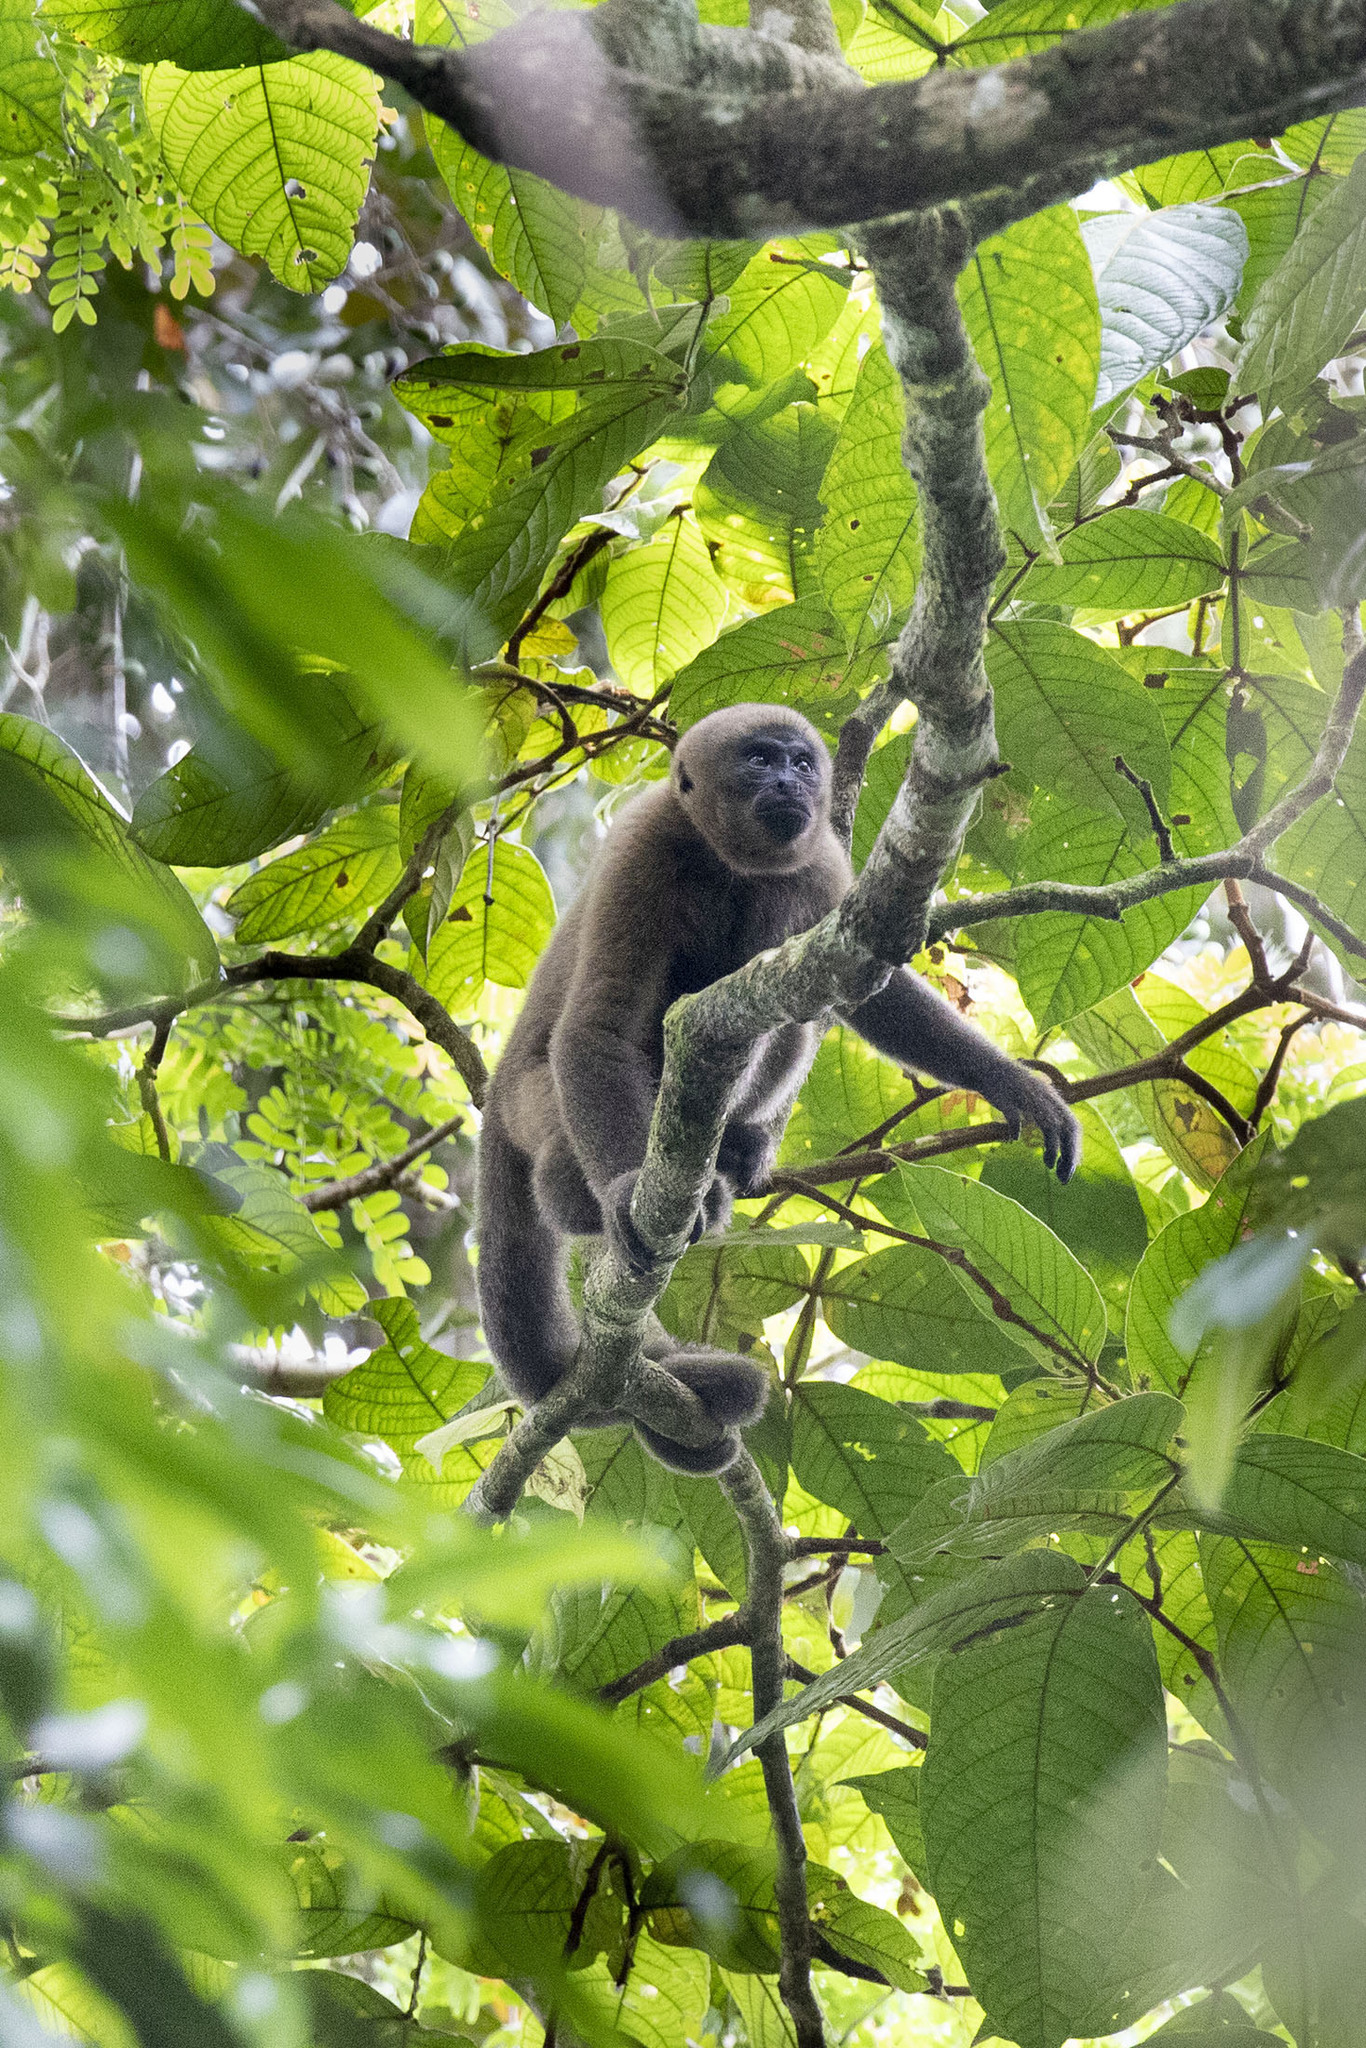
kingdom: Animalia
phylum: Chordata
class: Mammalia
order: Primates
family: Atelidae
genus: Lagothrix
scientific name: Lagothrix lagothricha
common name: Brown woolly monkey
